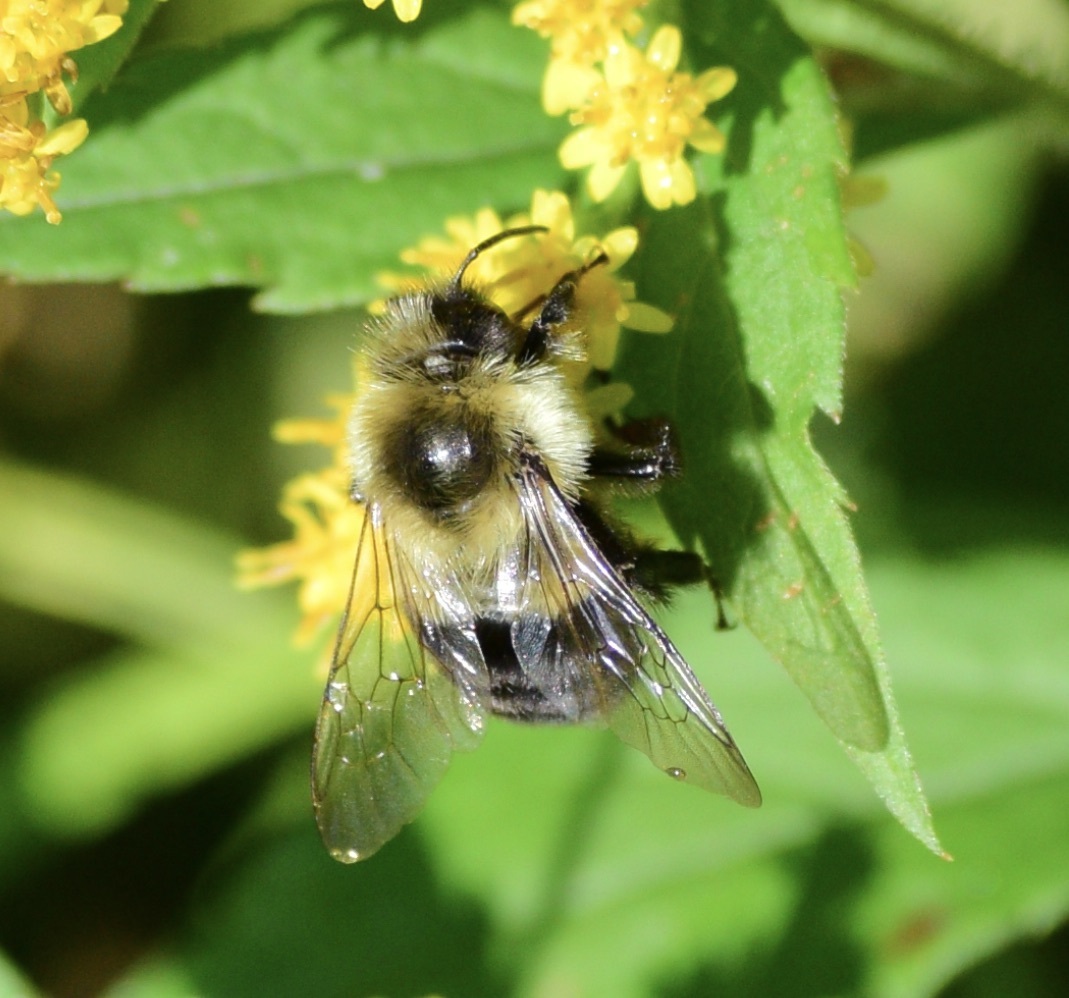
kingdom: Animalia
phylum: Arthropoda
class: Insecta
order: Hymenoptera
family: Apidae
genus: Bombus
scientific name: Bombus impatiens
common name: Common eastern bumble bee
